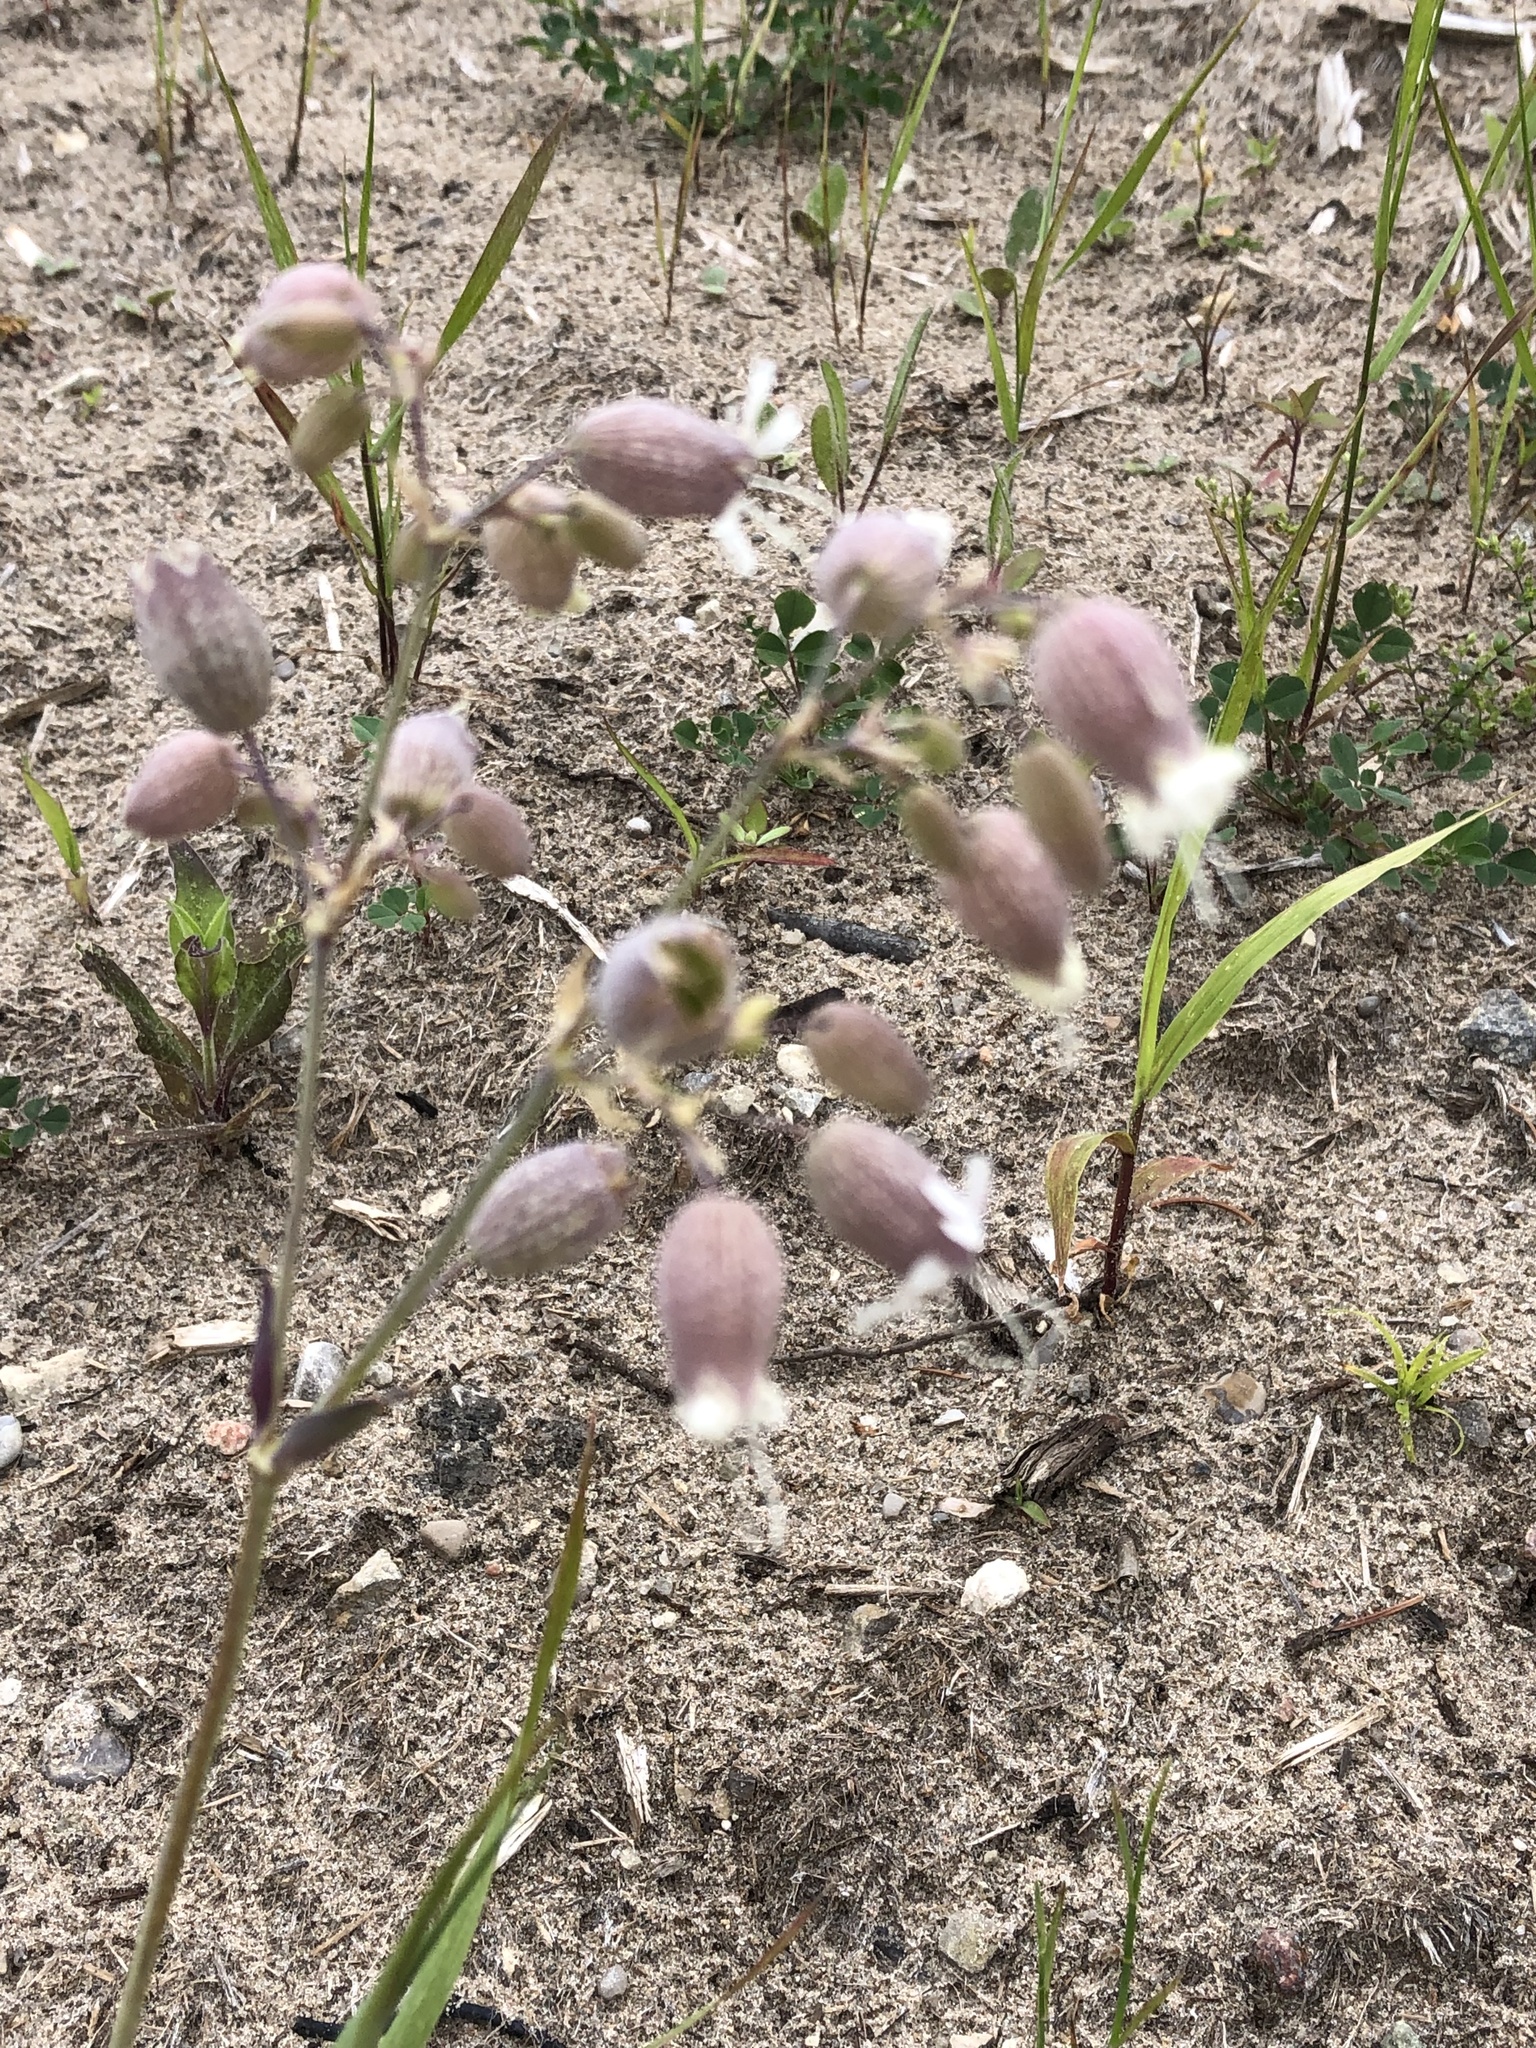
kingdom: Plantae
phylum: Tracheophyta
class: Magnoliopsida
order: Caryophyllales
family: Caryophyllaceae
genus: Silene
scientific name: Silene vulgaris
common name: Bladder campion
